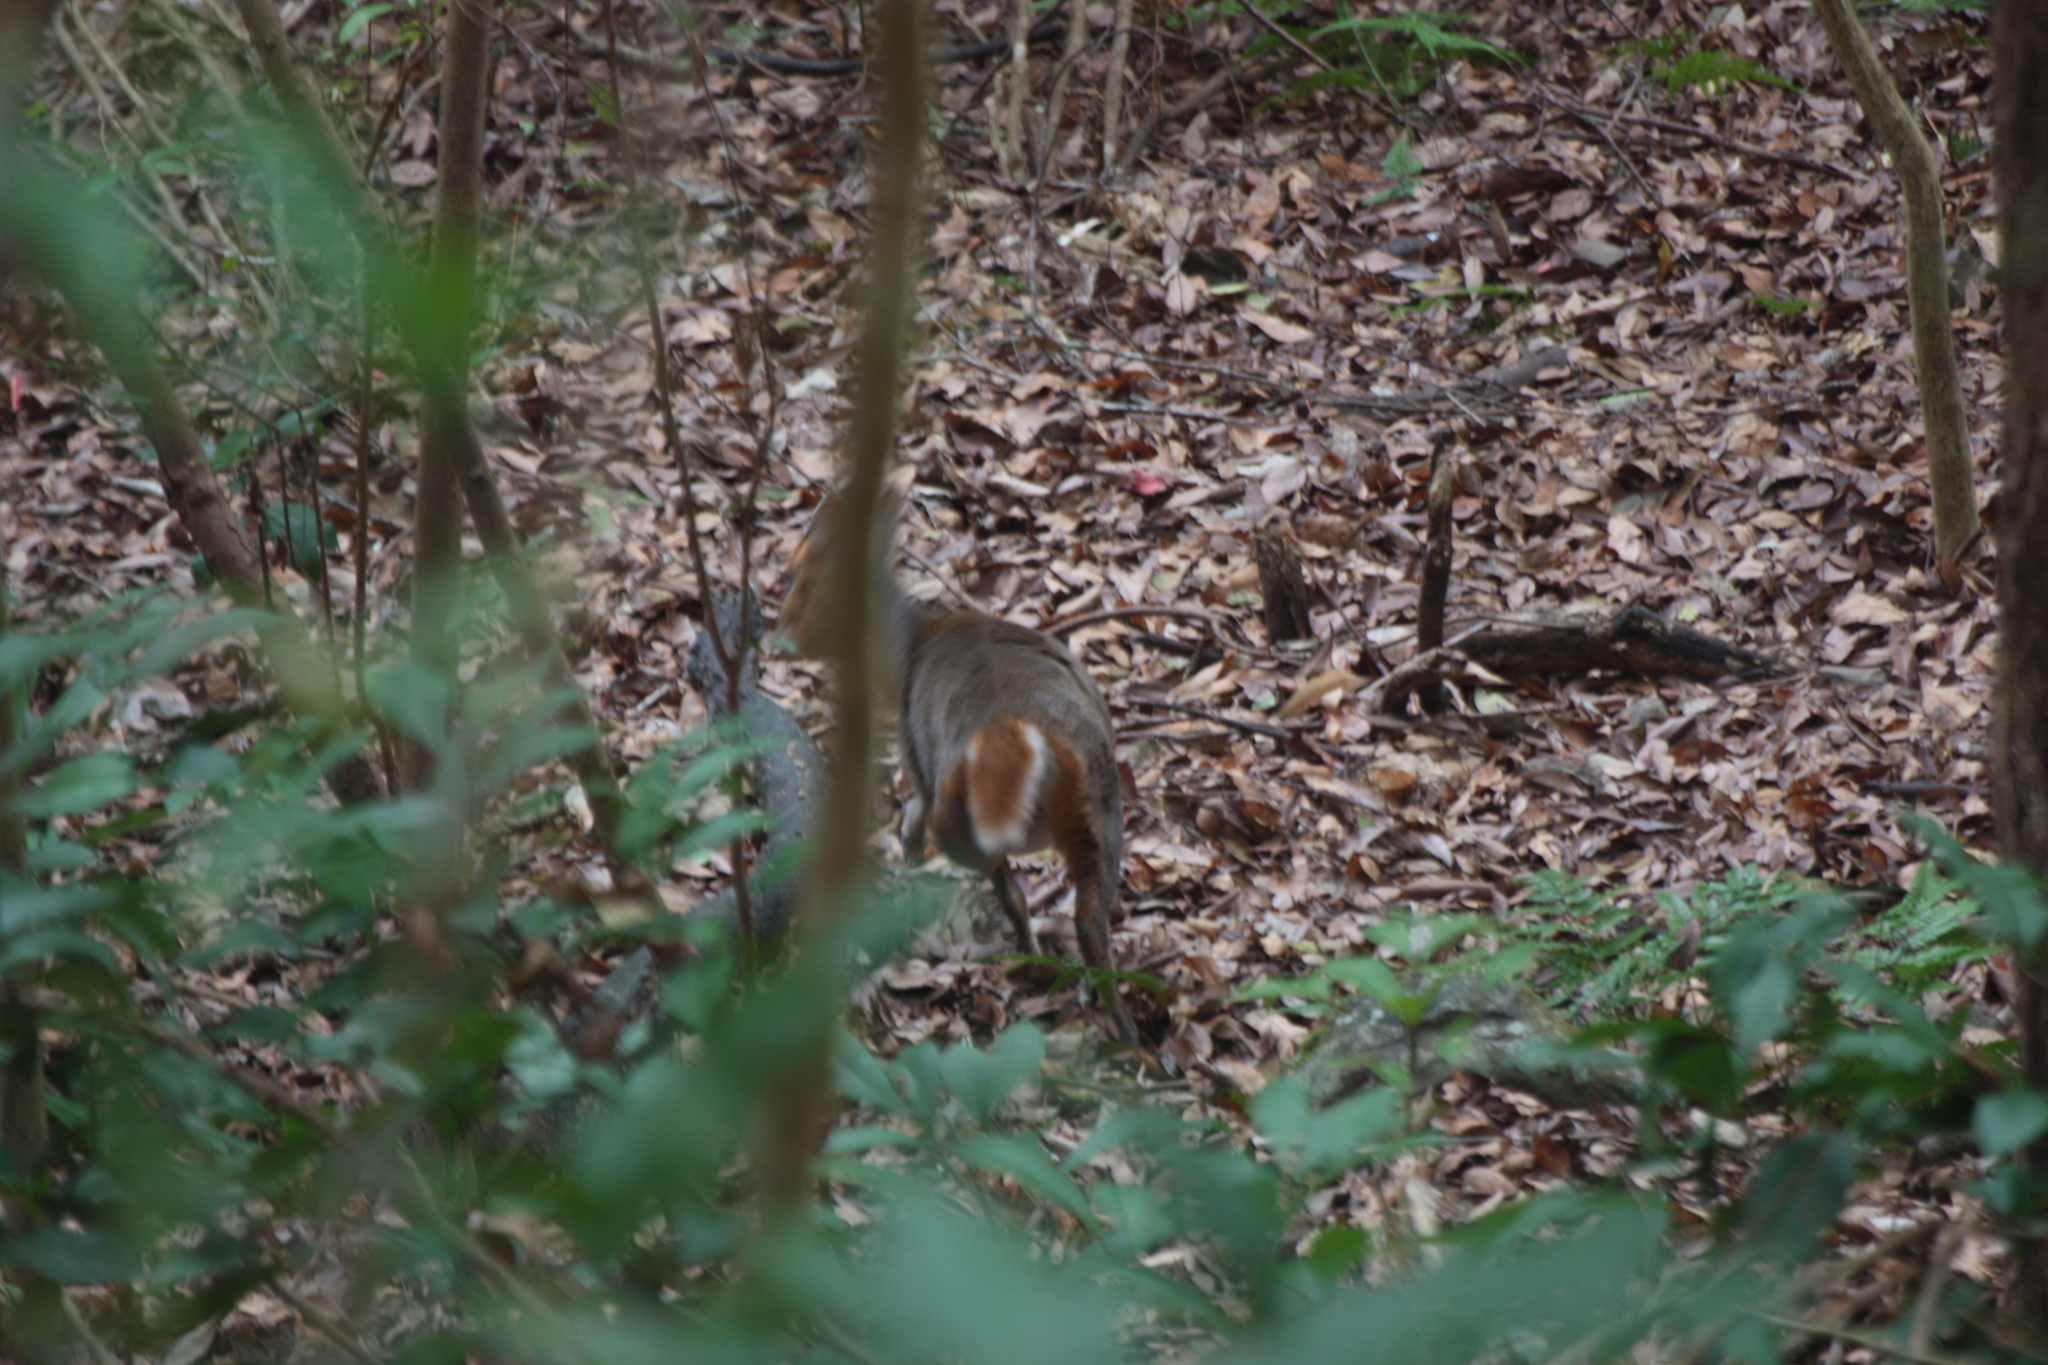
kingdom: Animalia
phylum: Chordata
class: Mammalia
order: Artiodactyla
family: Cervidae
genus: Muntiacus
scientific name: Muntiacus reevesi
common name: Reeves' muntjac
